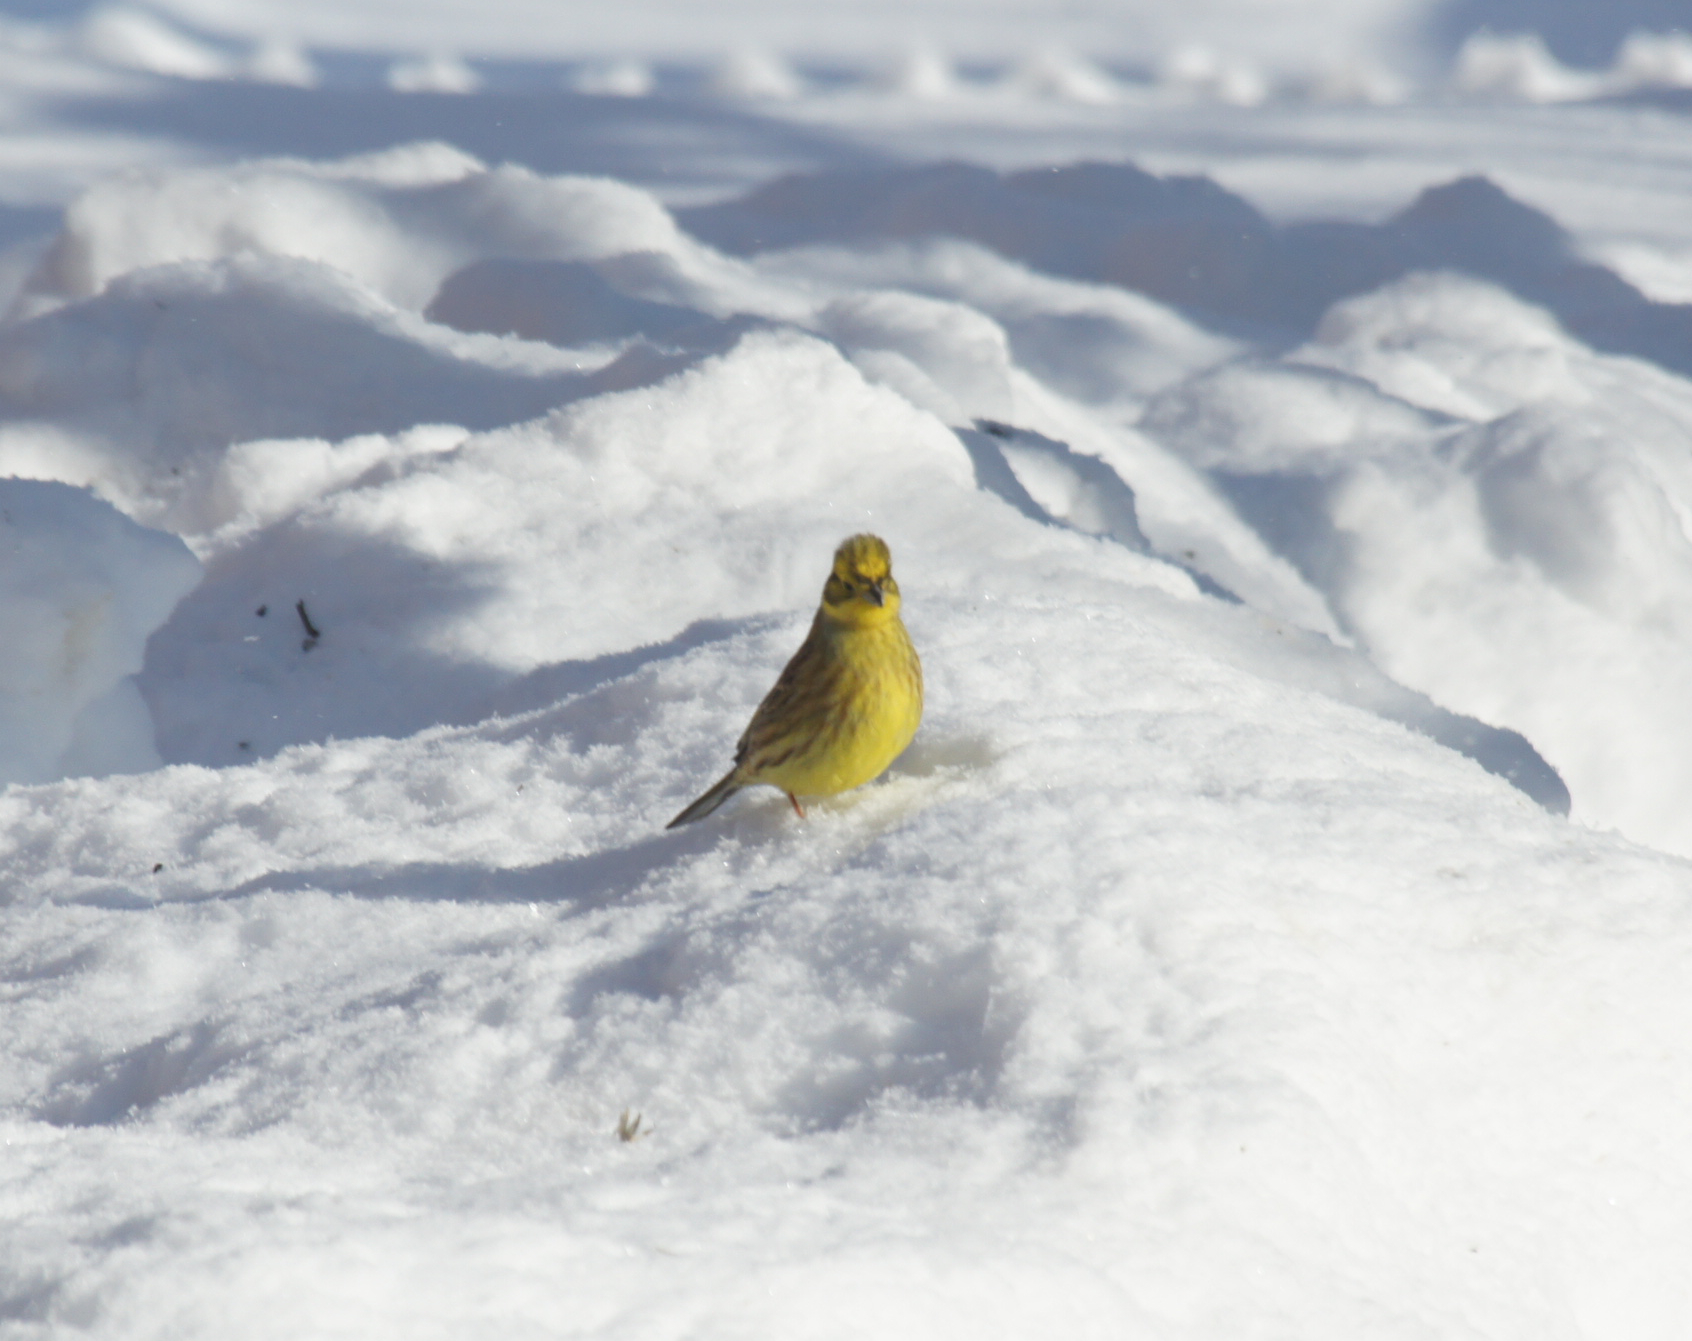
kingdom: Animalia
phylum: Chordata
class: Aves
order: Passeriformes
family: Emberizidae
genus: Emberiza
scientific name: Emberiza citrinella
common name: Yellowhammer
